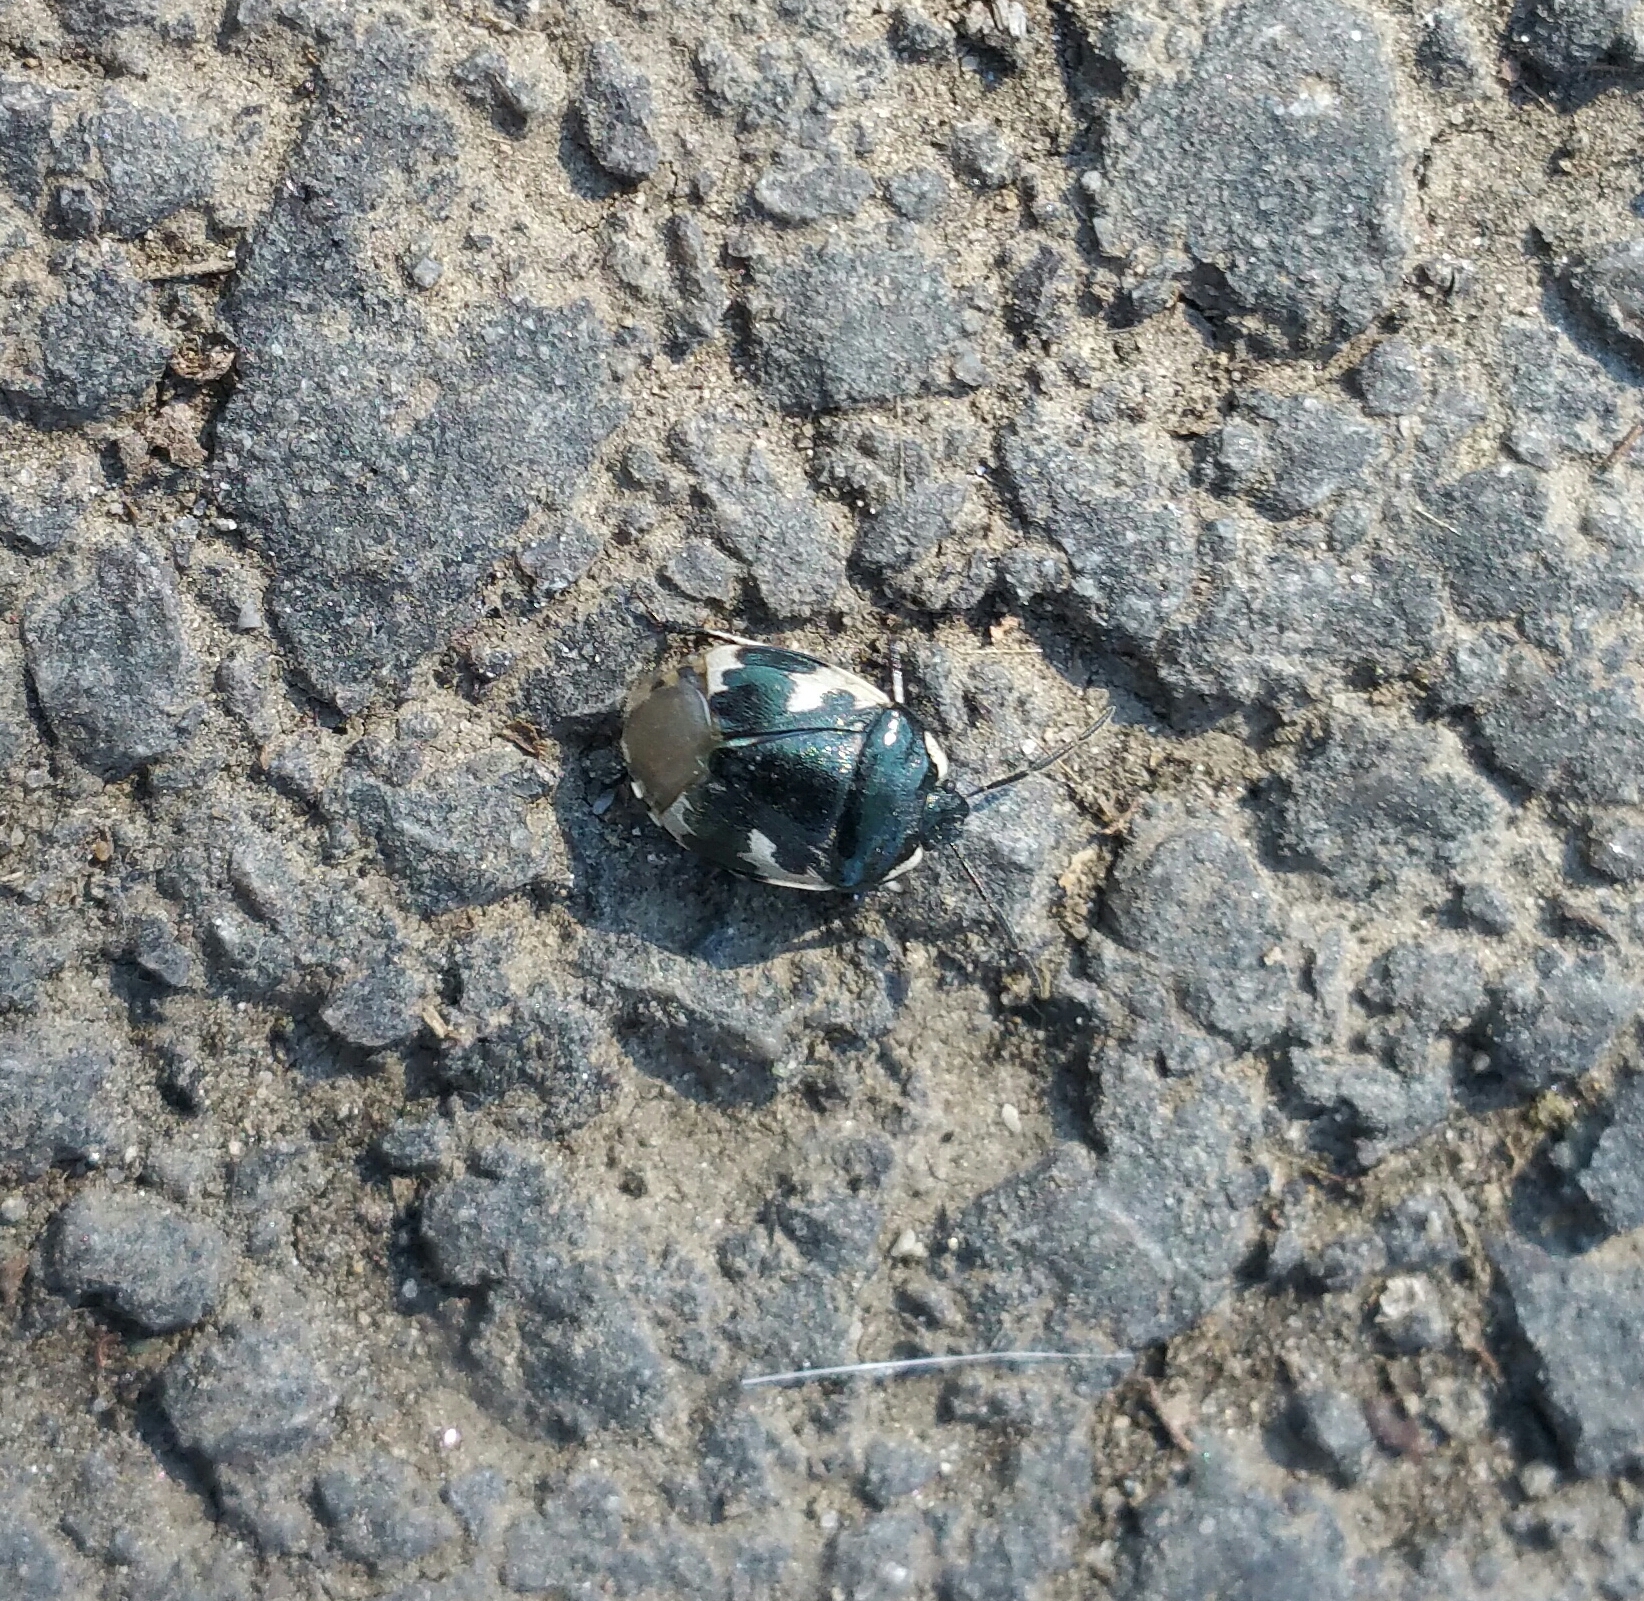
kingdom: Animalia
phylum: Arthropoda
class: Insecta
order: Hemiptera
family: Cydnidae
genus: Tritomegas
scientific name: Tritomegas bicolor
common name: Pied shieldbug
